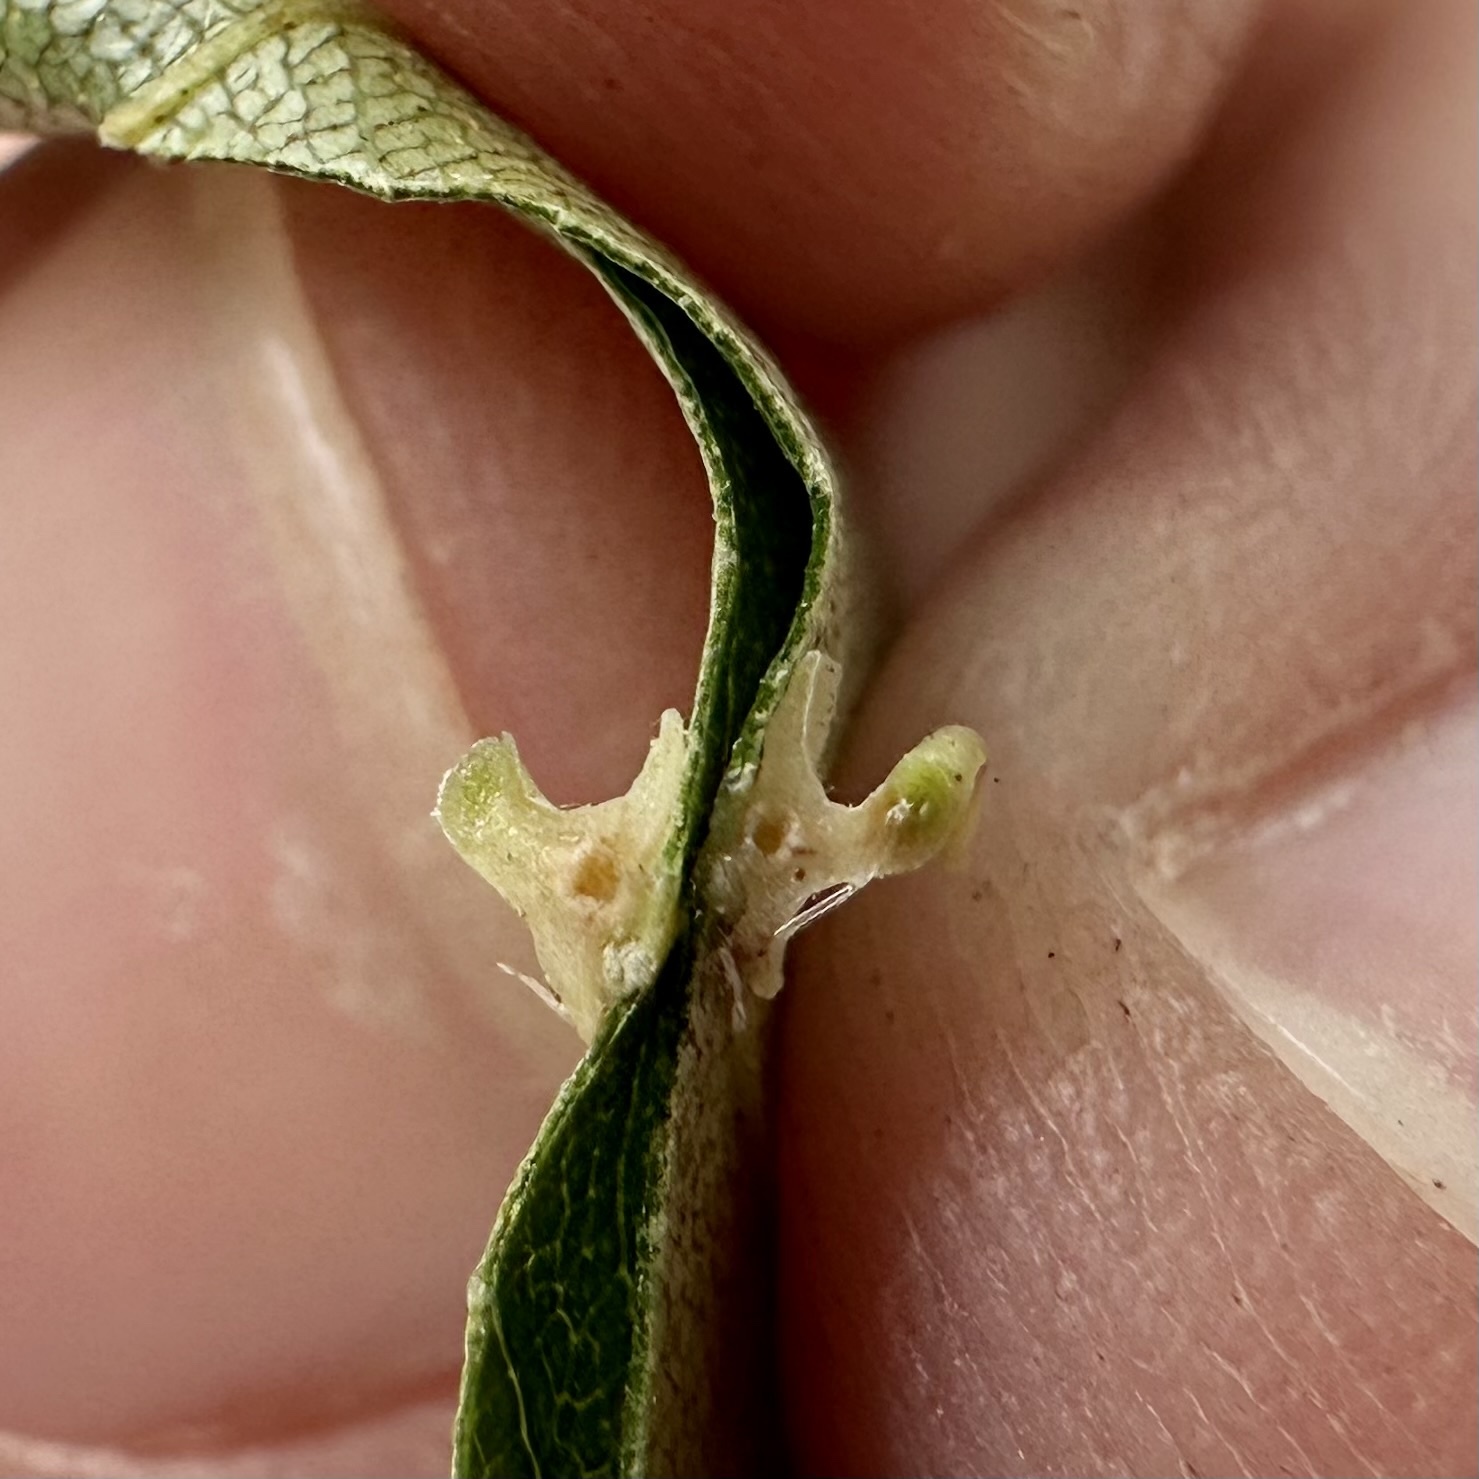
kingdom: Animalia
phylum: Arthropoda
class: Insecta
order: Diptera
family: Cecidomyiidae
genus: Caryomyia
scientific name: Caryomyia stellata
